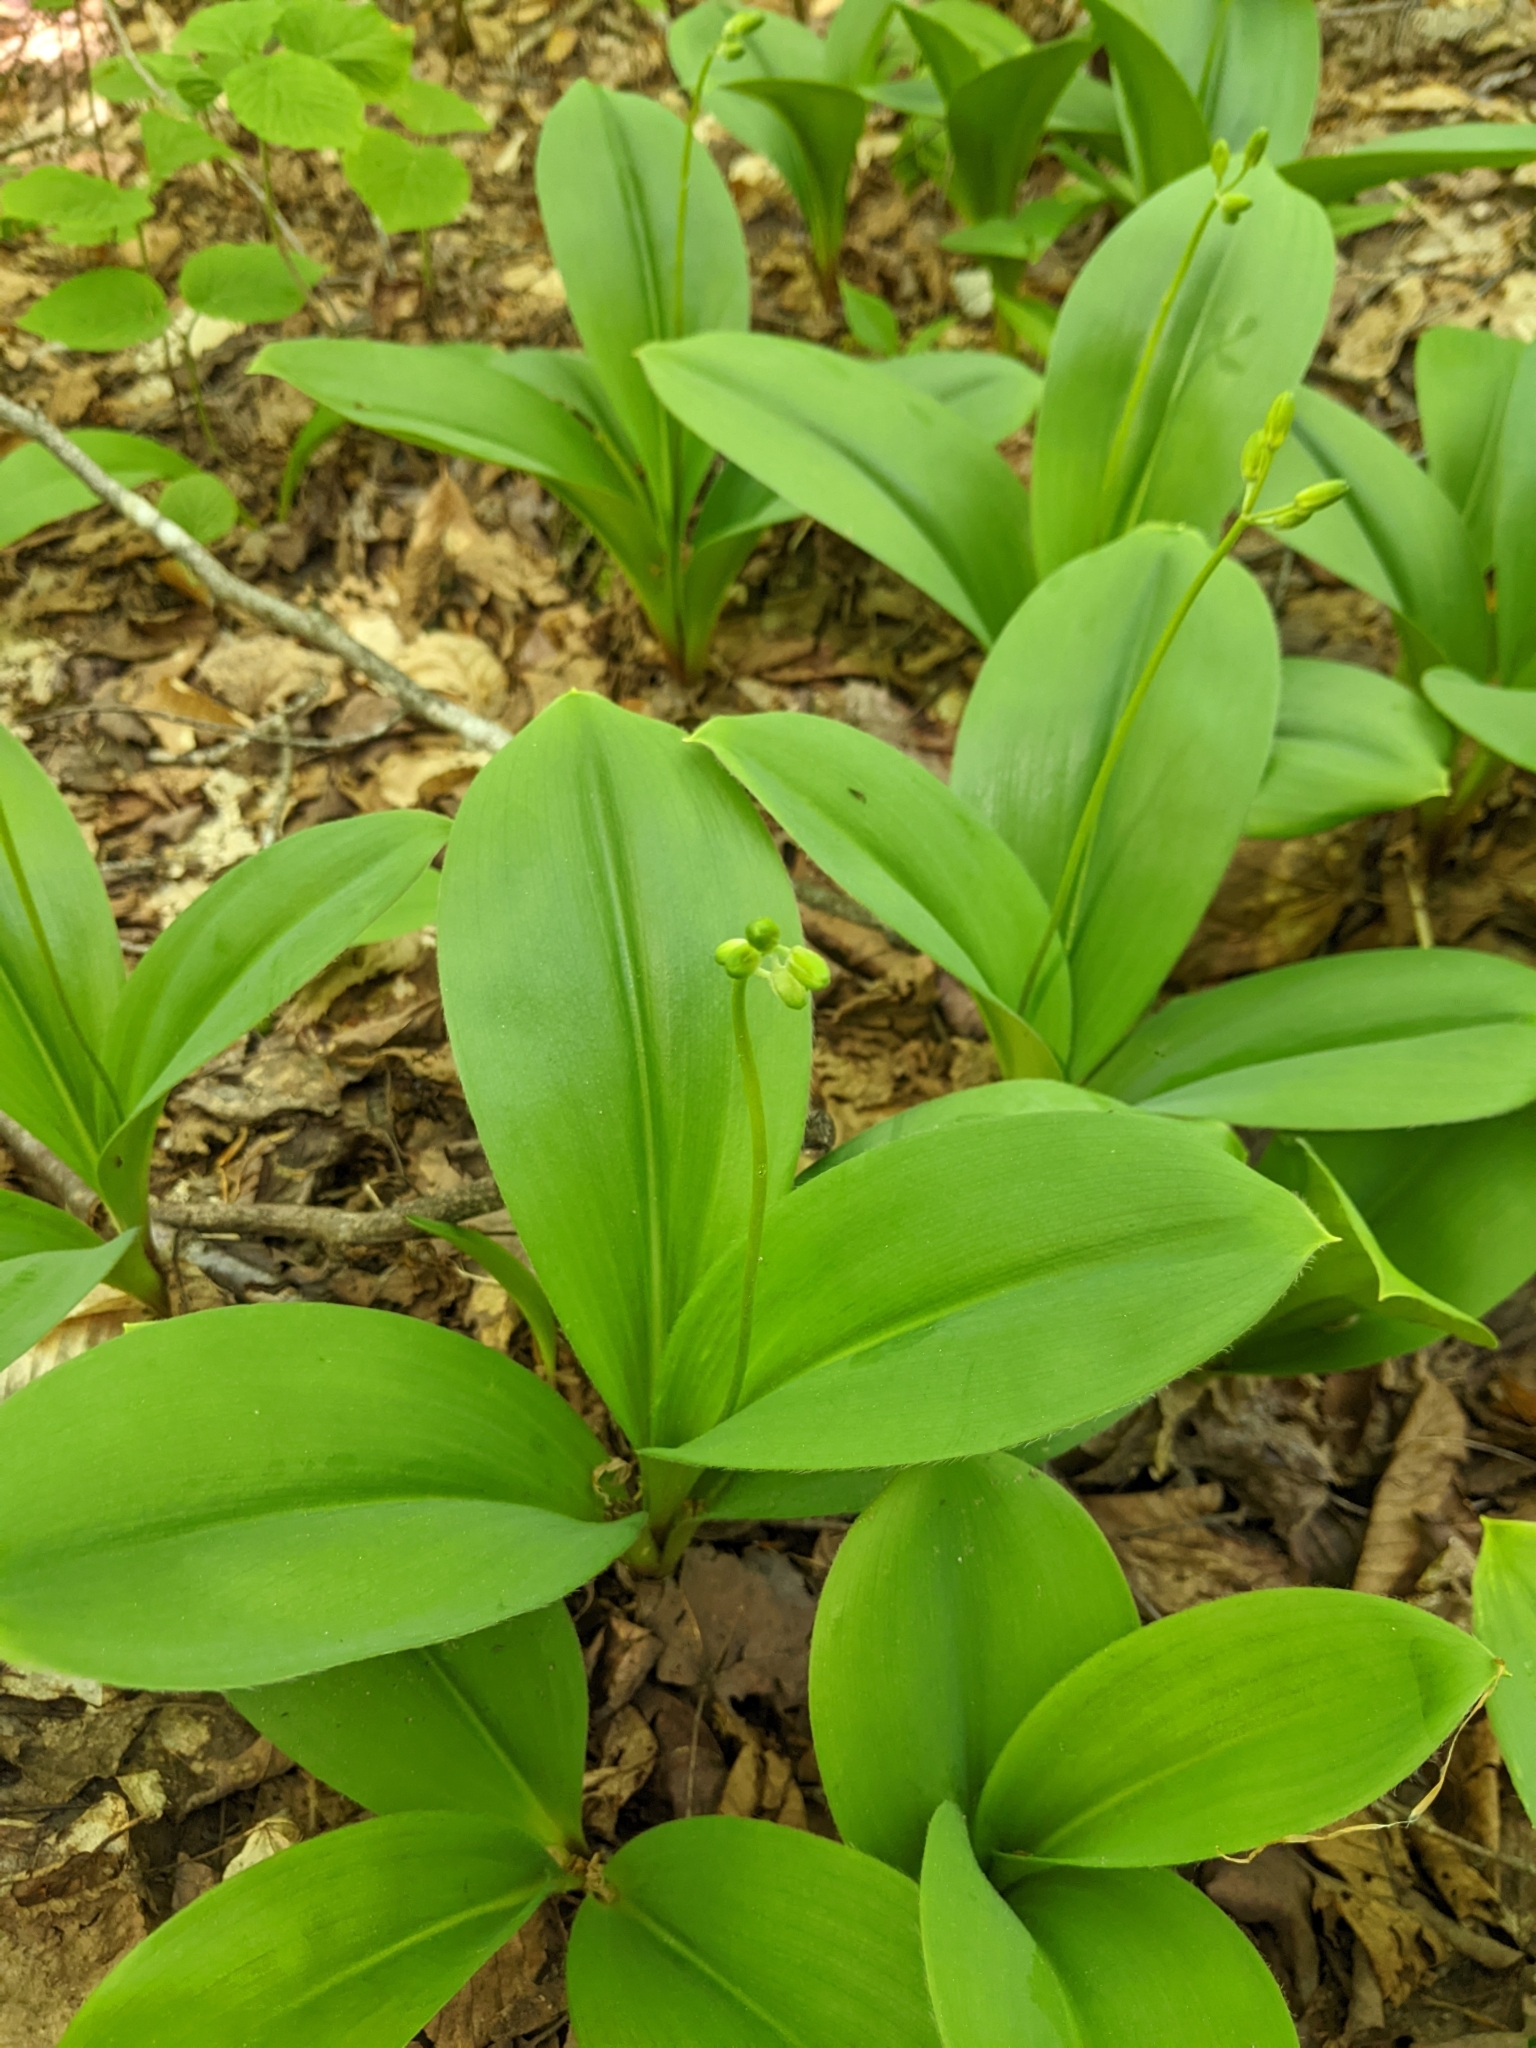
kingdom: Plantae
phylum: Tracheophyta
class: Liliopsida
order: Liliales
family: Liliaceae
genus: Clintonia
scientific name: Clintonia borealis
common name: Yellow clintonia
